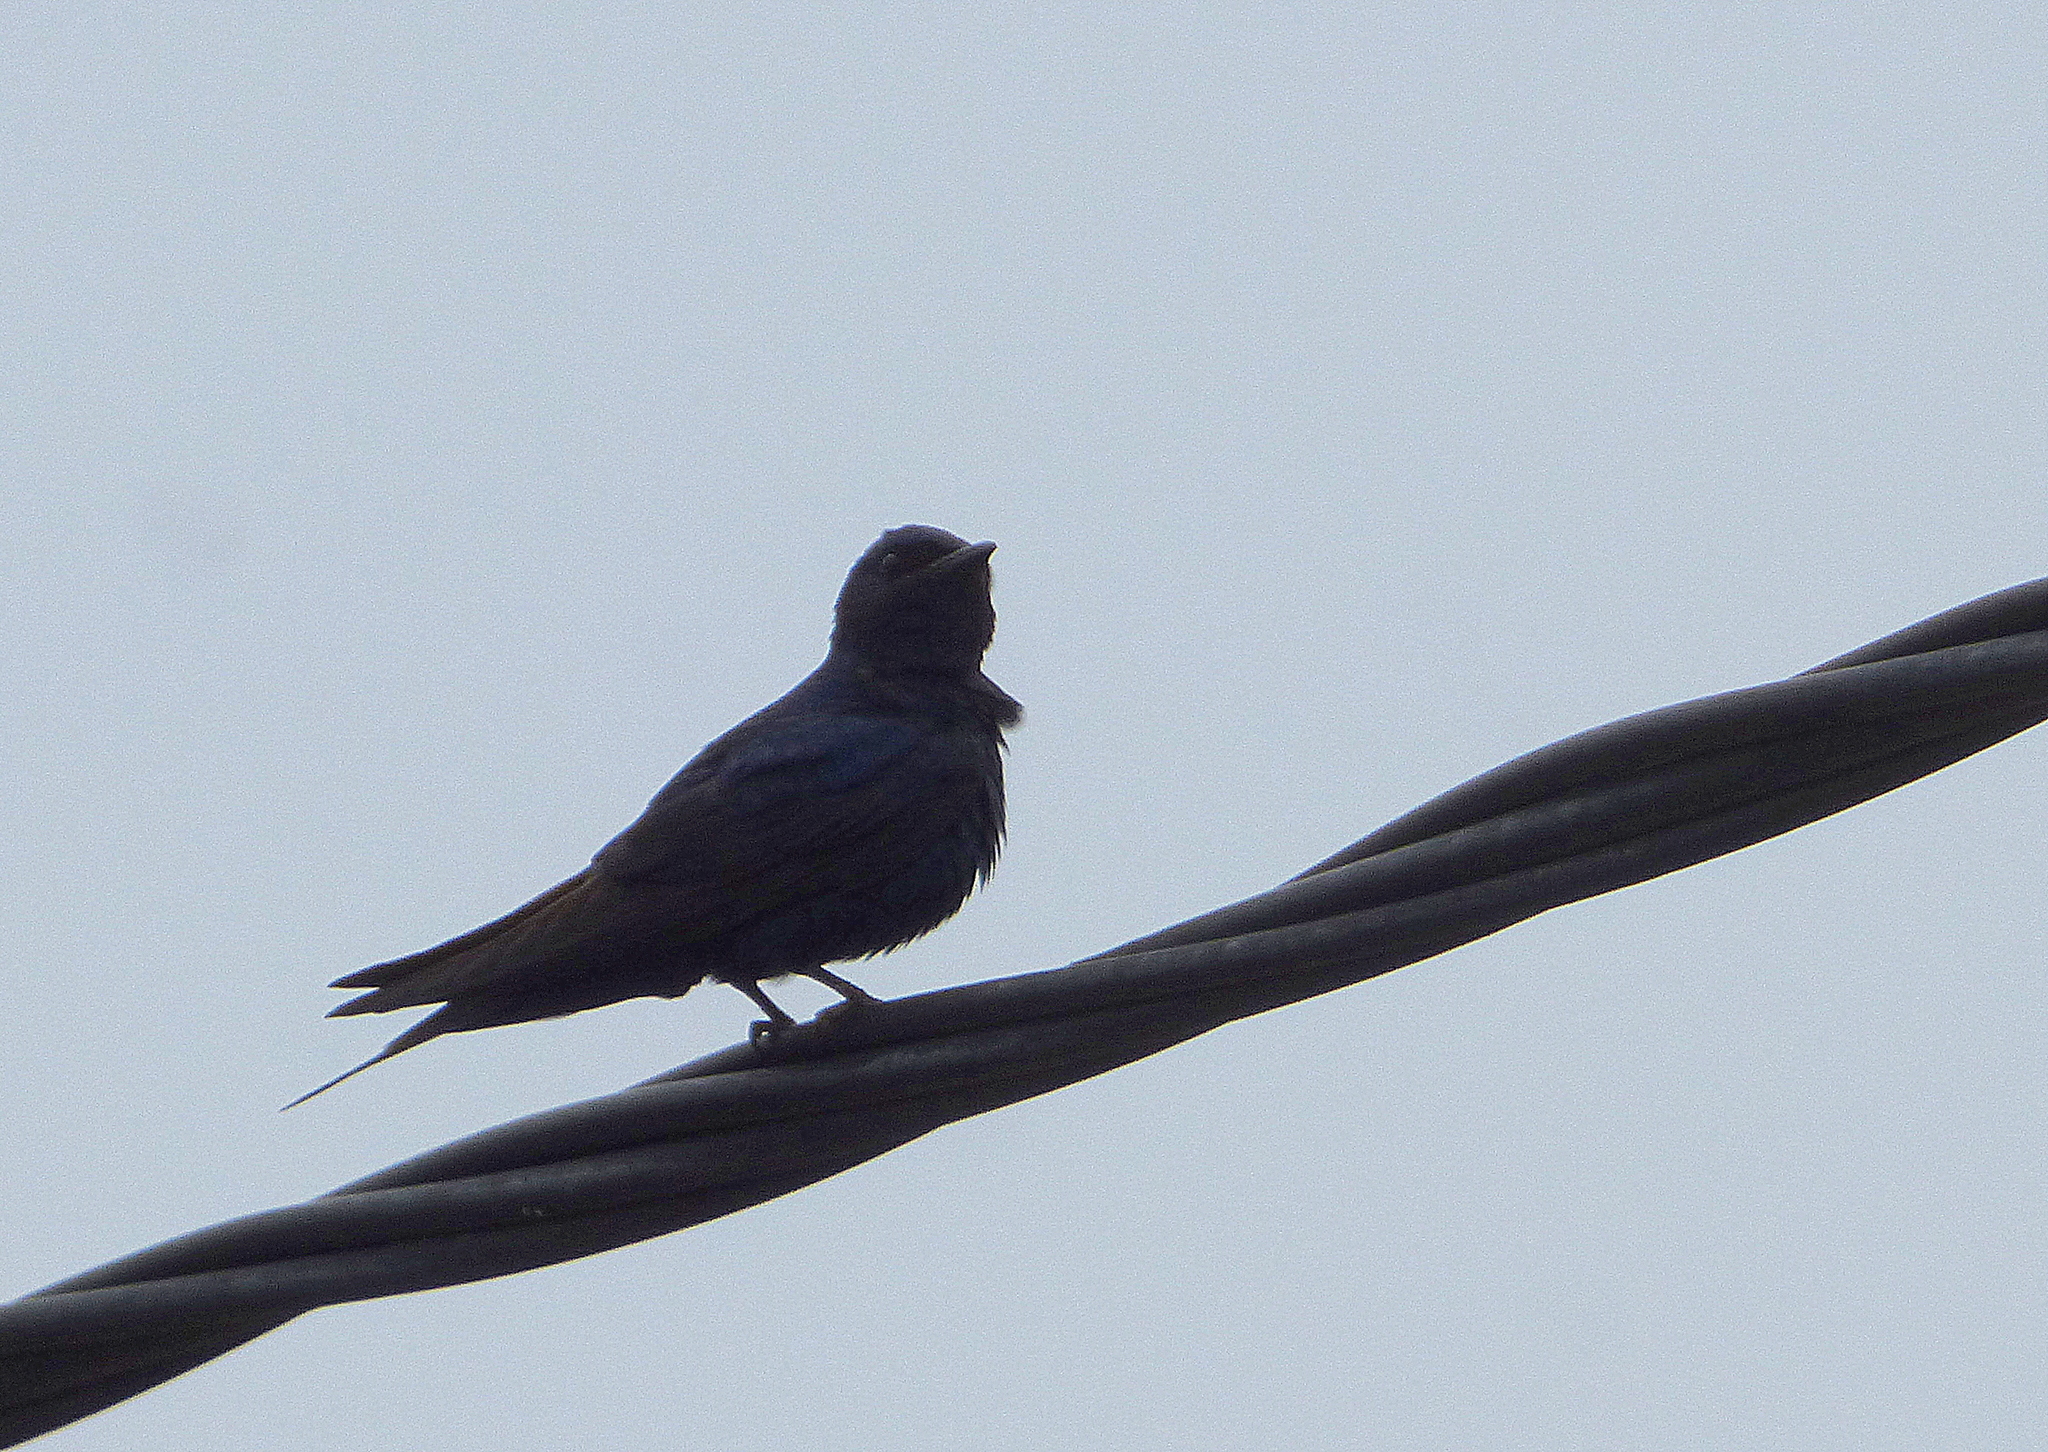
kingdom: Animalia
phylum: Chordata
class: Aves
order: Passeriformes
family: Hirundinidae
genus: Progne
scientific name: Progne elegans
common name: Southern martin
